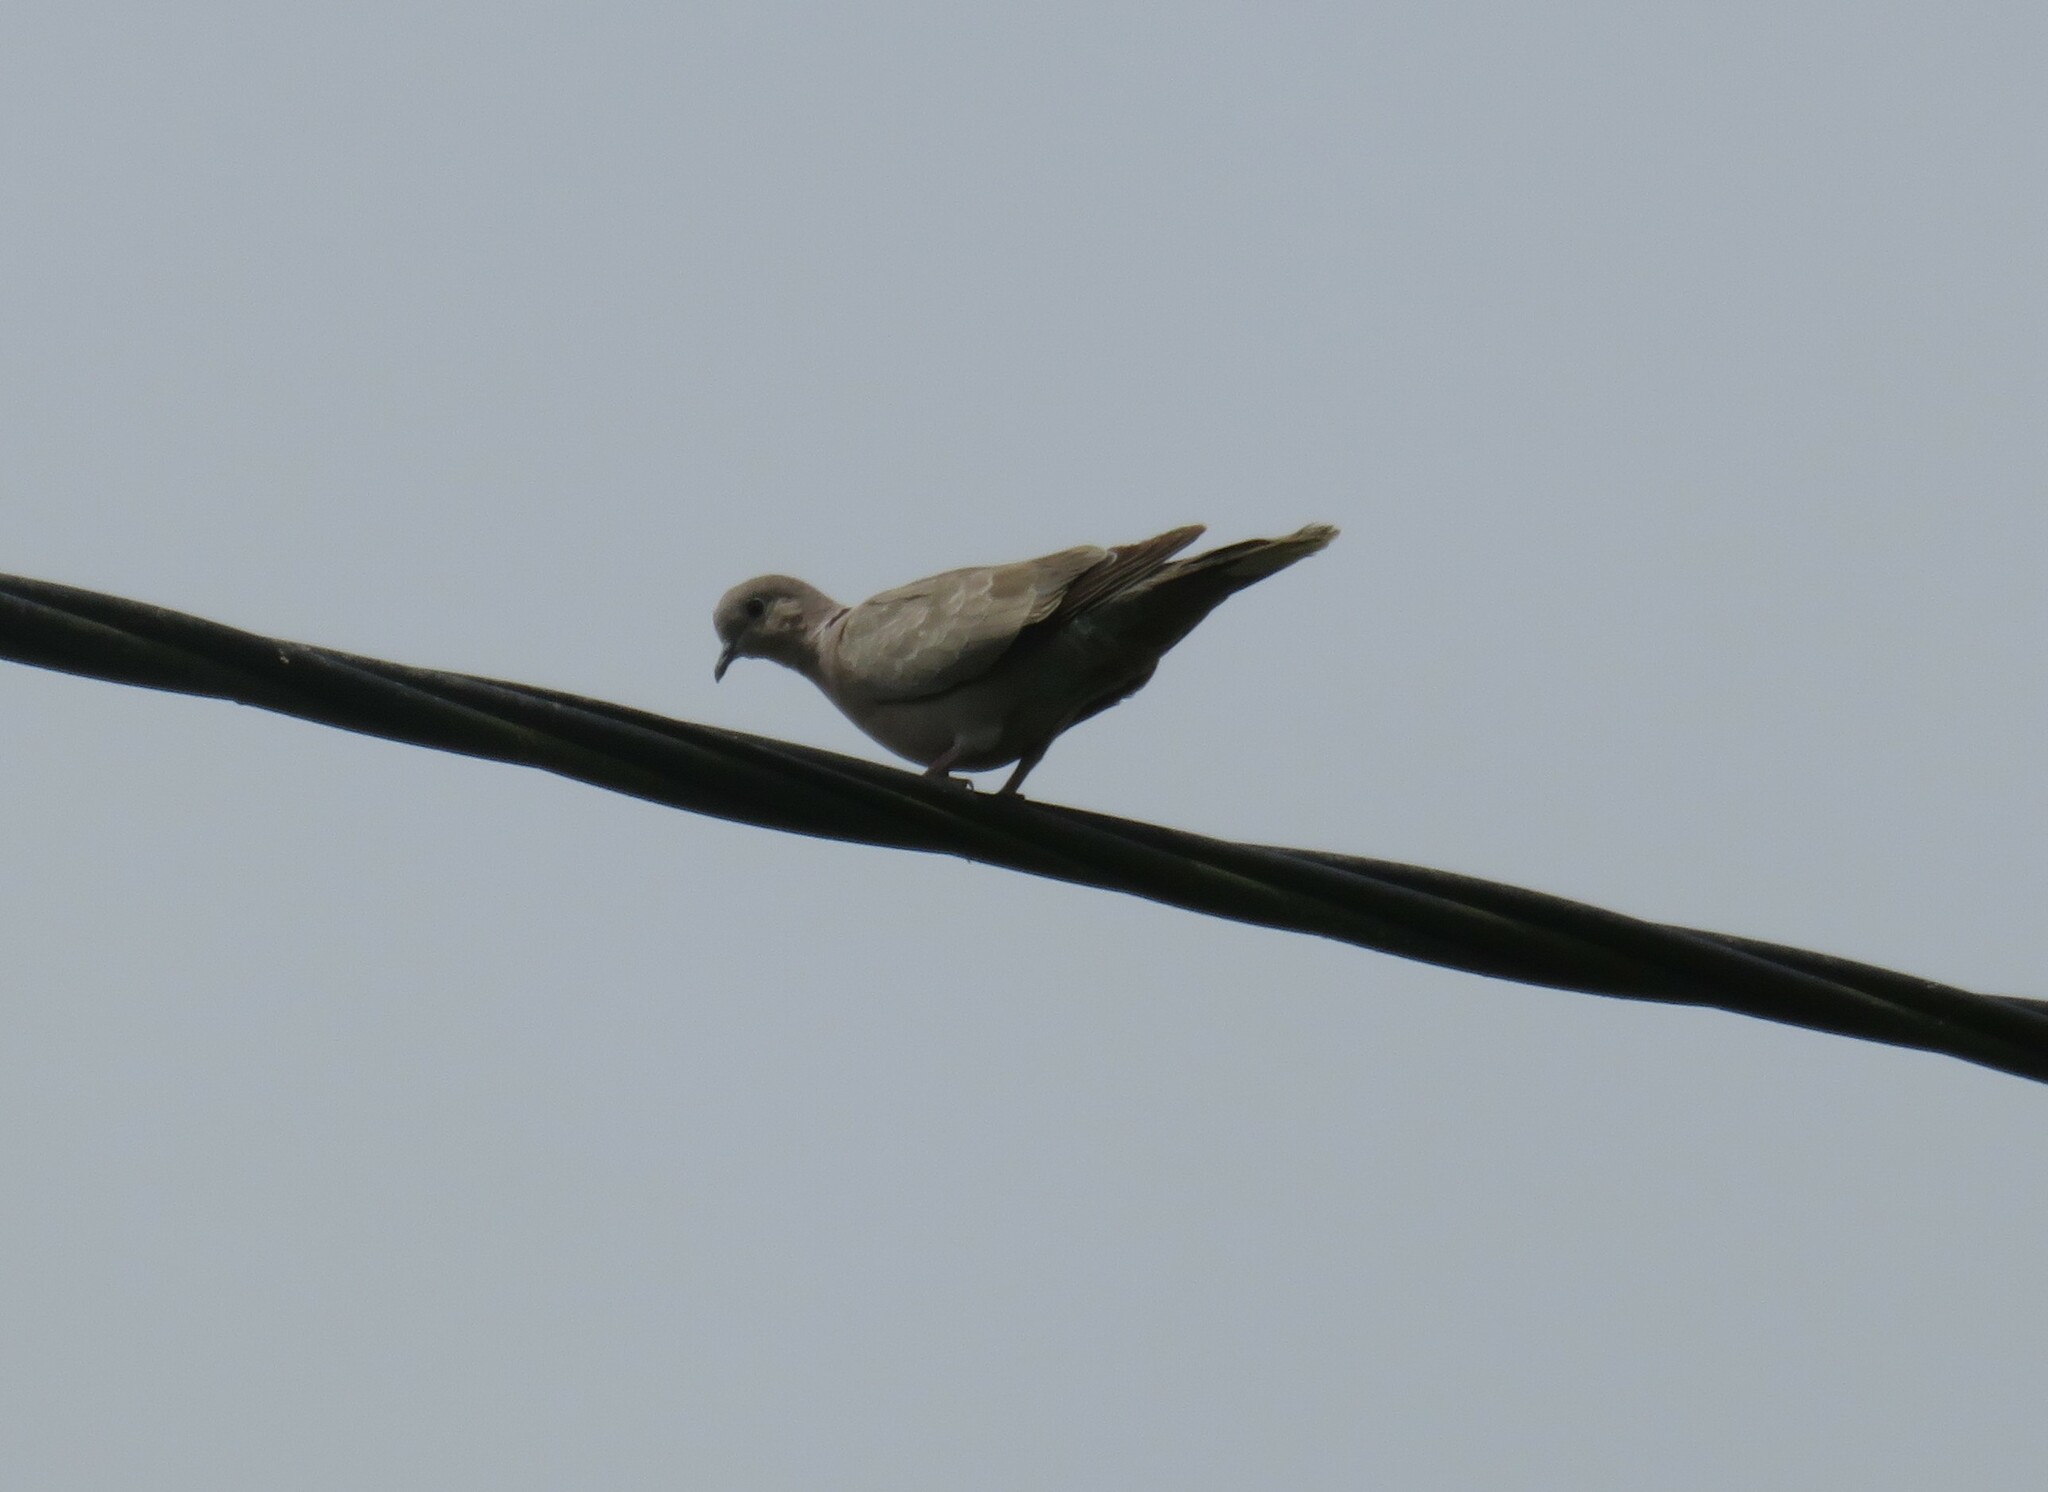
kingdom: Animalia
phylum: Chordata
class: Aves
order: Columbiformes
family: Columbidae
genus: Streptopelia
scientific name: Streptopelia decaocto
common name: Eurasian collared dove
